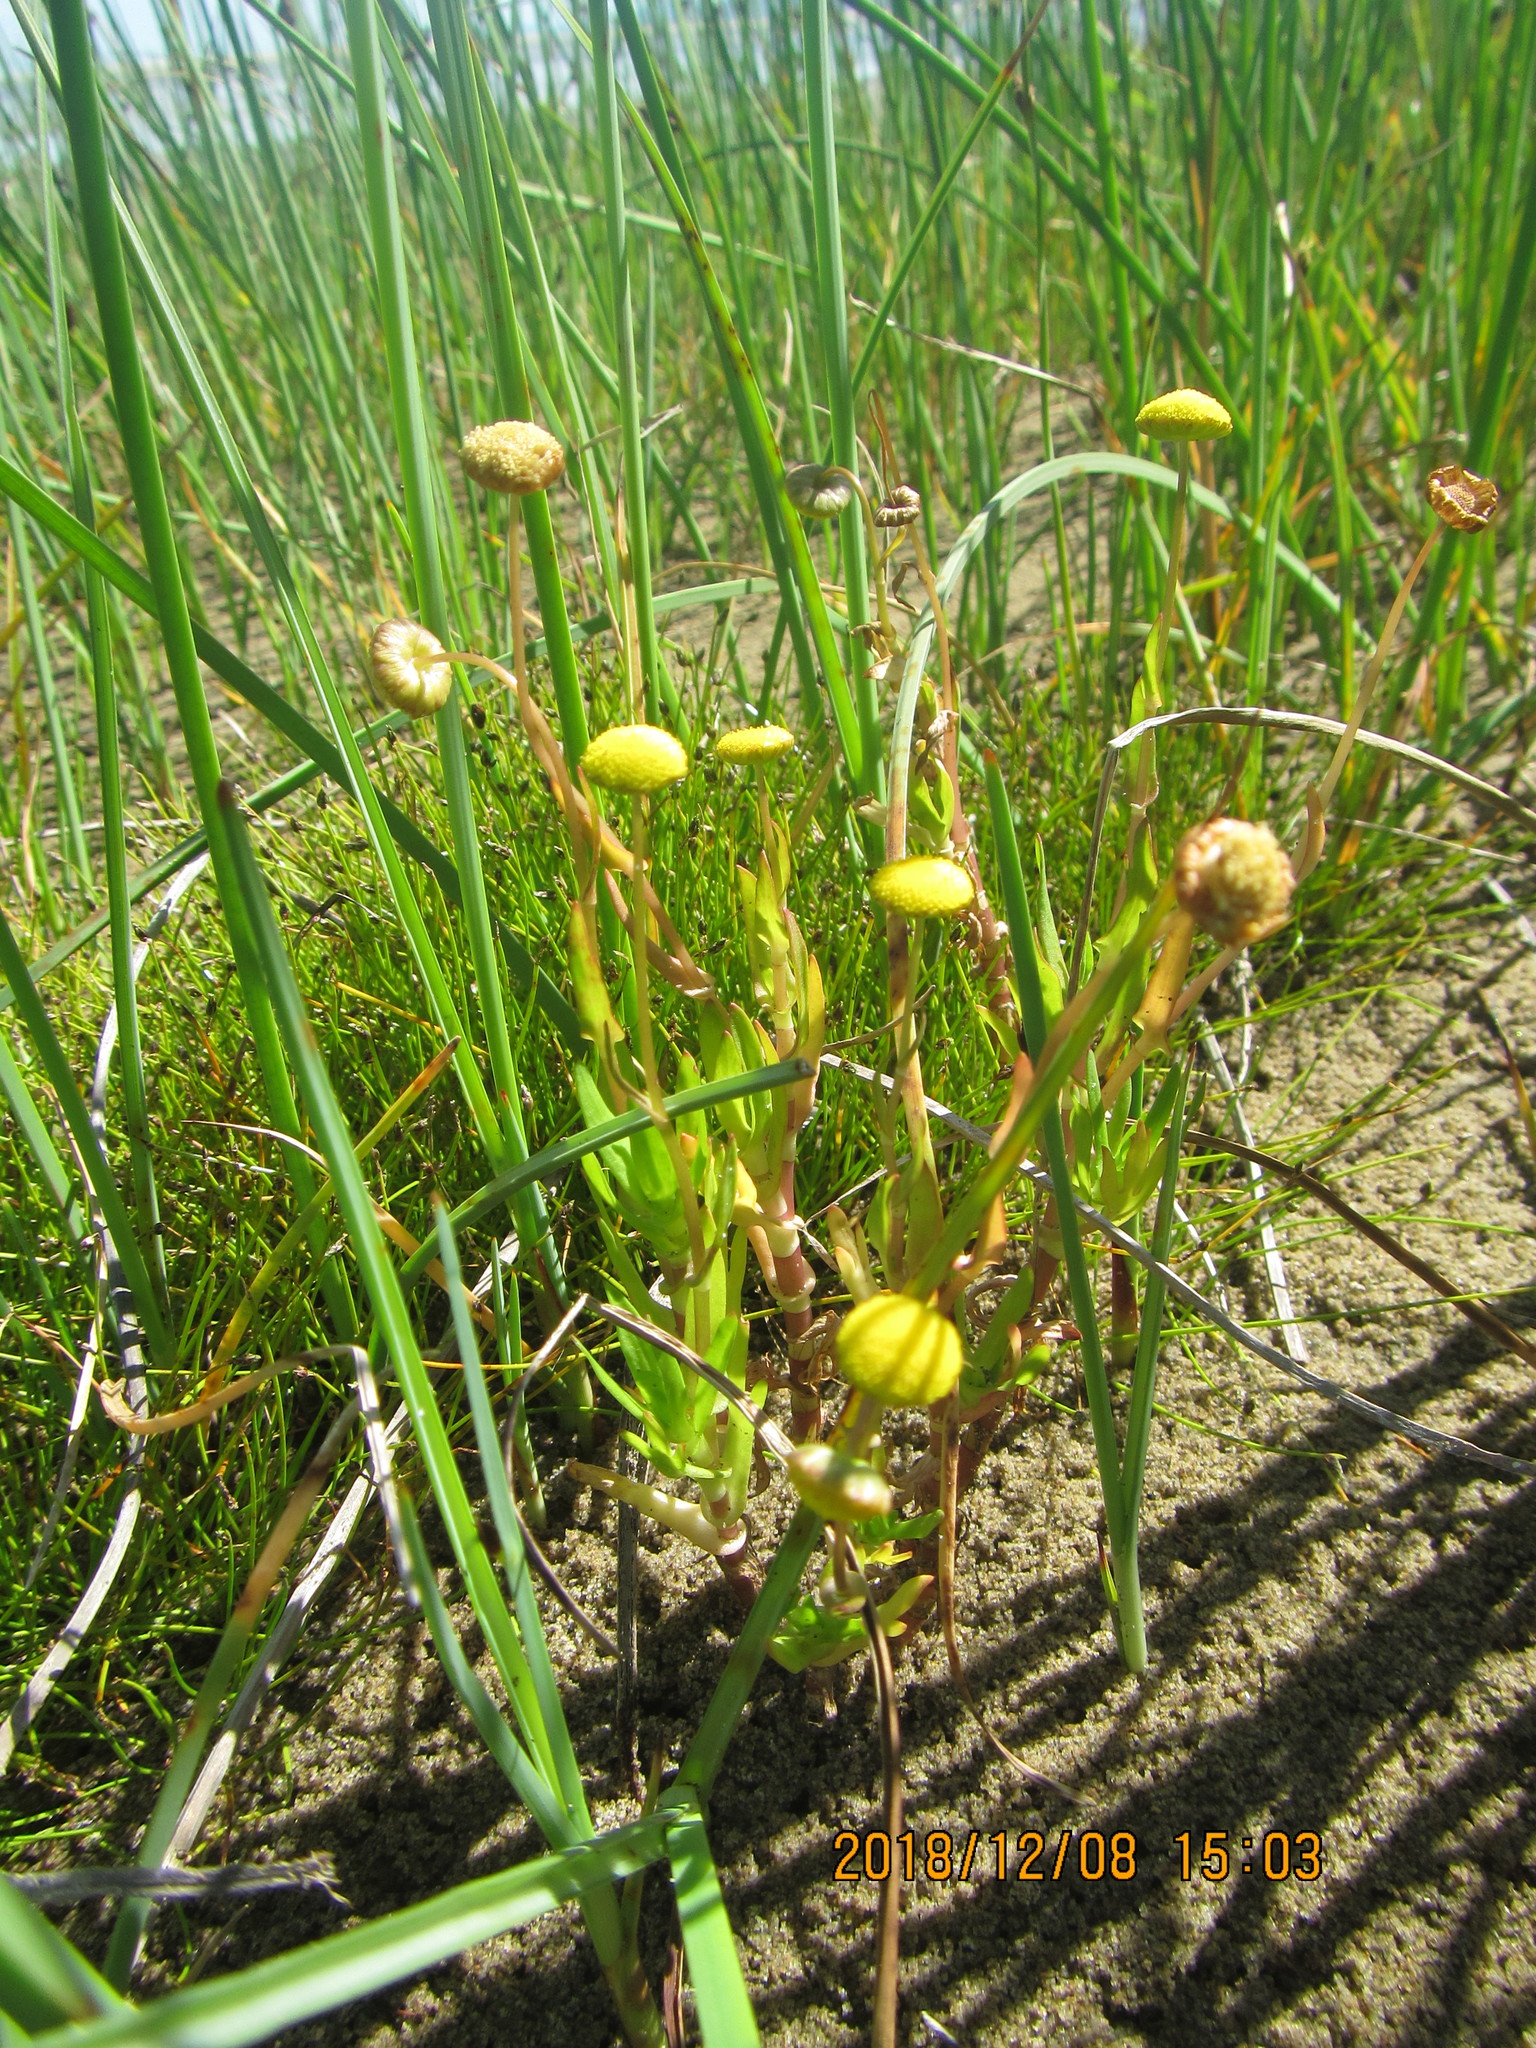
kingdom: Plantae
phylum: Tracheophyta
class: Magnoliopsida
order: Asterales
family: Asteraceae
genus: Cotula
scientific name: Cotula coronopifolia
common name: Buttonweed
